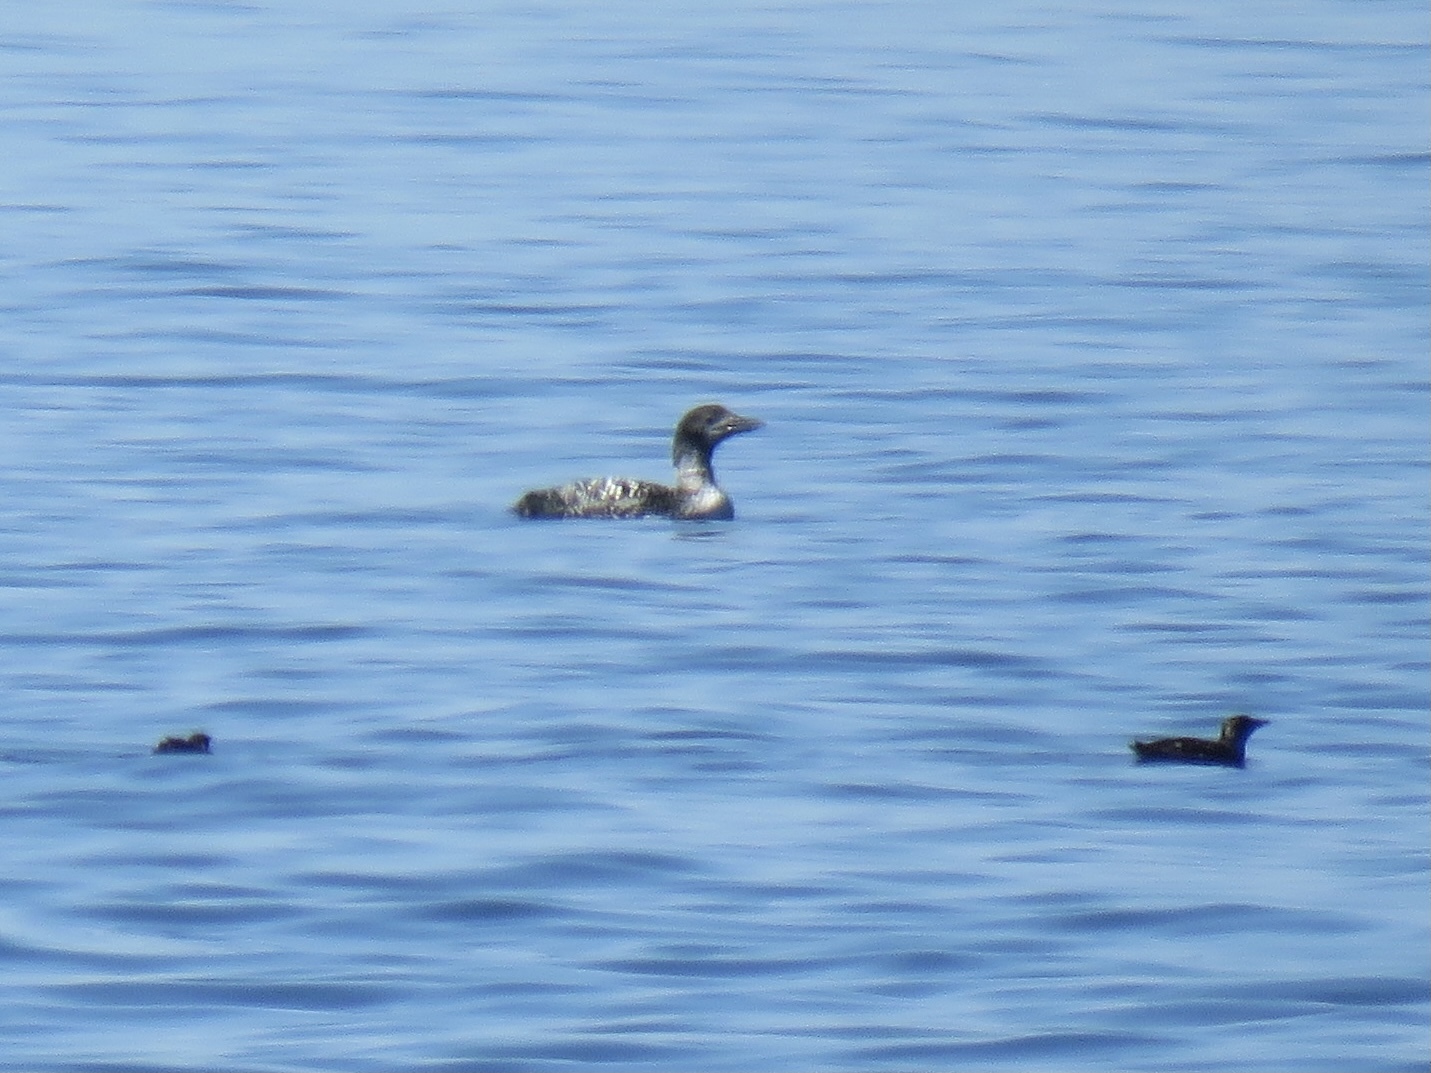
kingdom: Animalia
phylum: Chordata
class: Aves
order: Gaviiformes
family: Gaviidae
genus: Gavia
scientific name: Gavia immer
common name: Common loon
